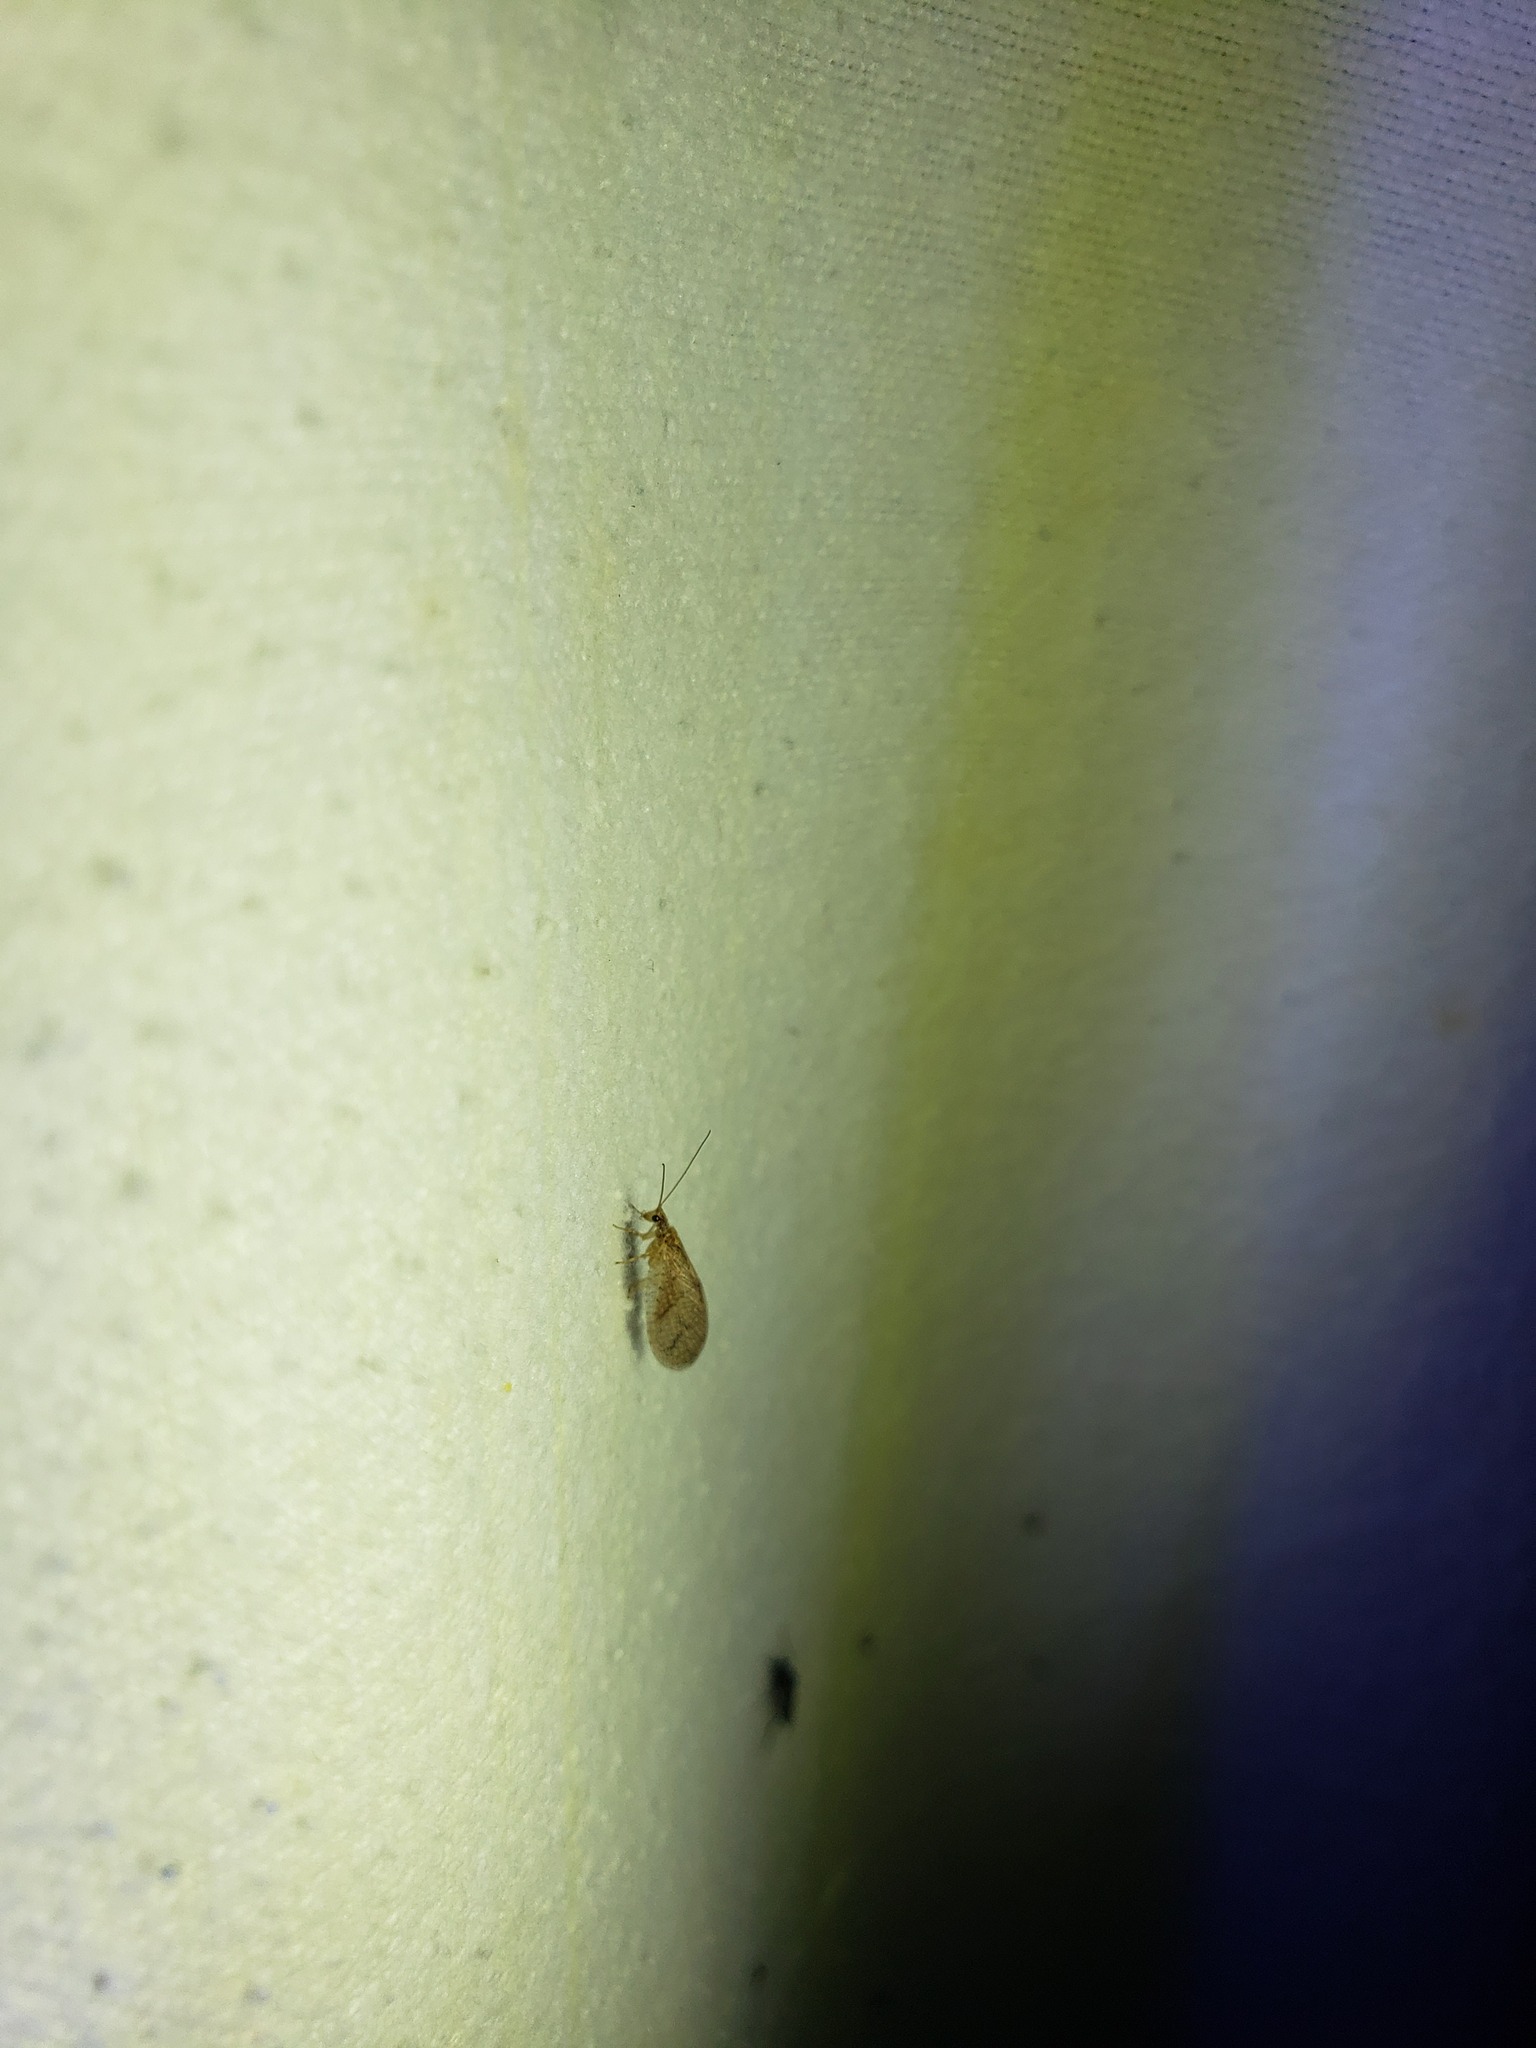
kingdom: Animalia
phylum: Arthropoda
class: Insecta
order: Neuroptera
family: Hemerobiidae
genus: Micromus
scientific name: Micromus posticus
